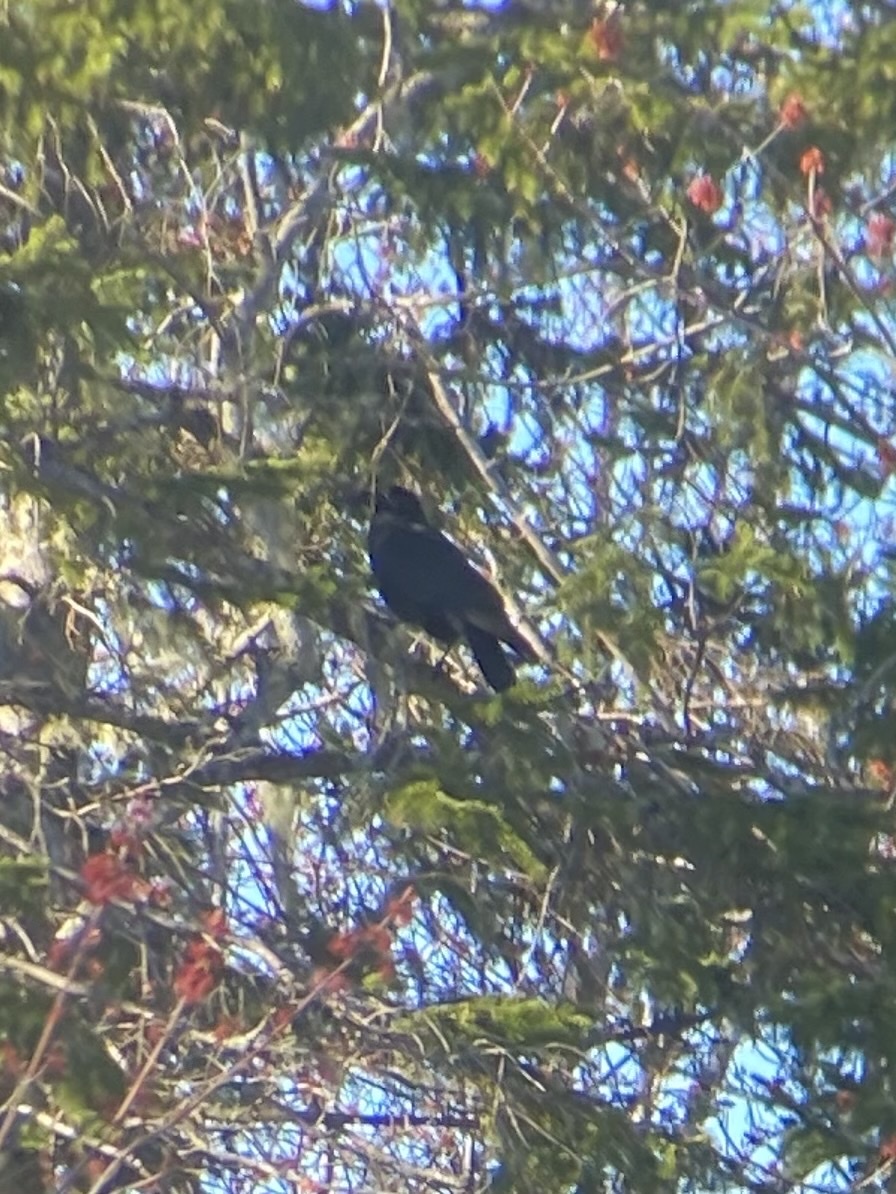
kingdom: Animalia
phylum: Chordata
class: Aves
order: Passeriformes
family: Corvidae
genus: Corvus
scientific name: Corvus brachyrhynchos
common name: American crow
